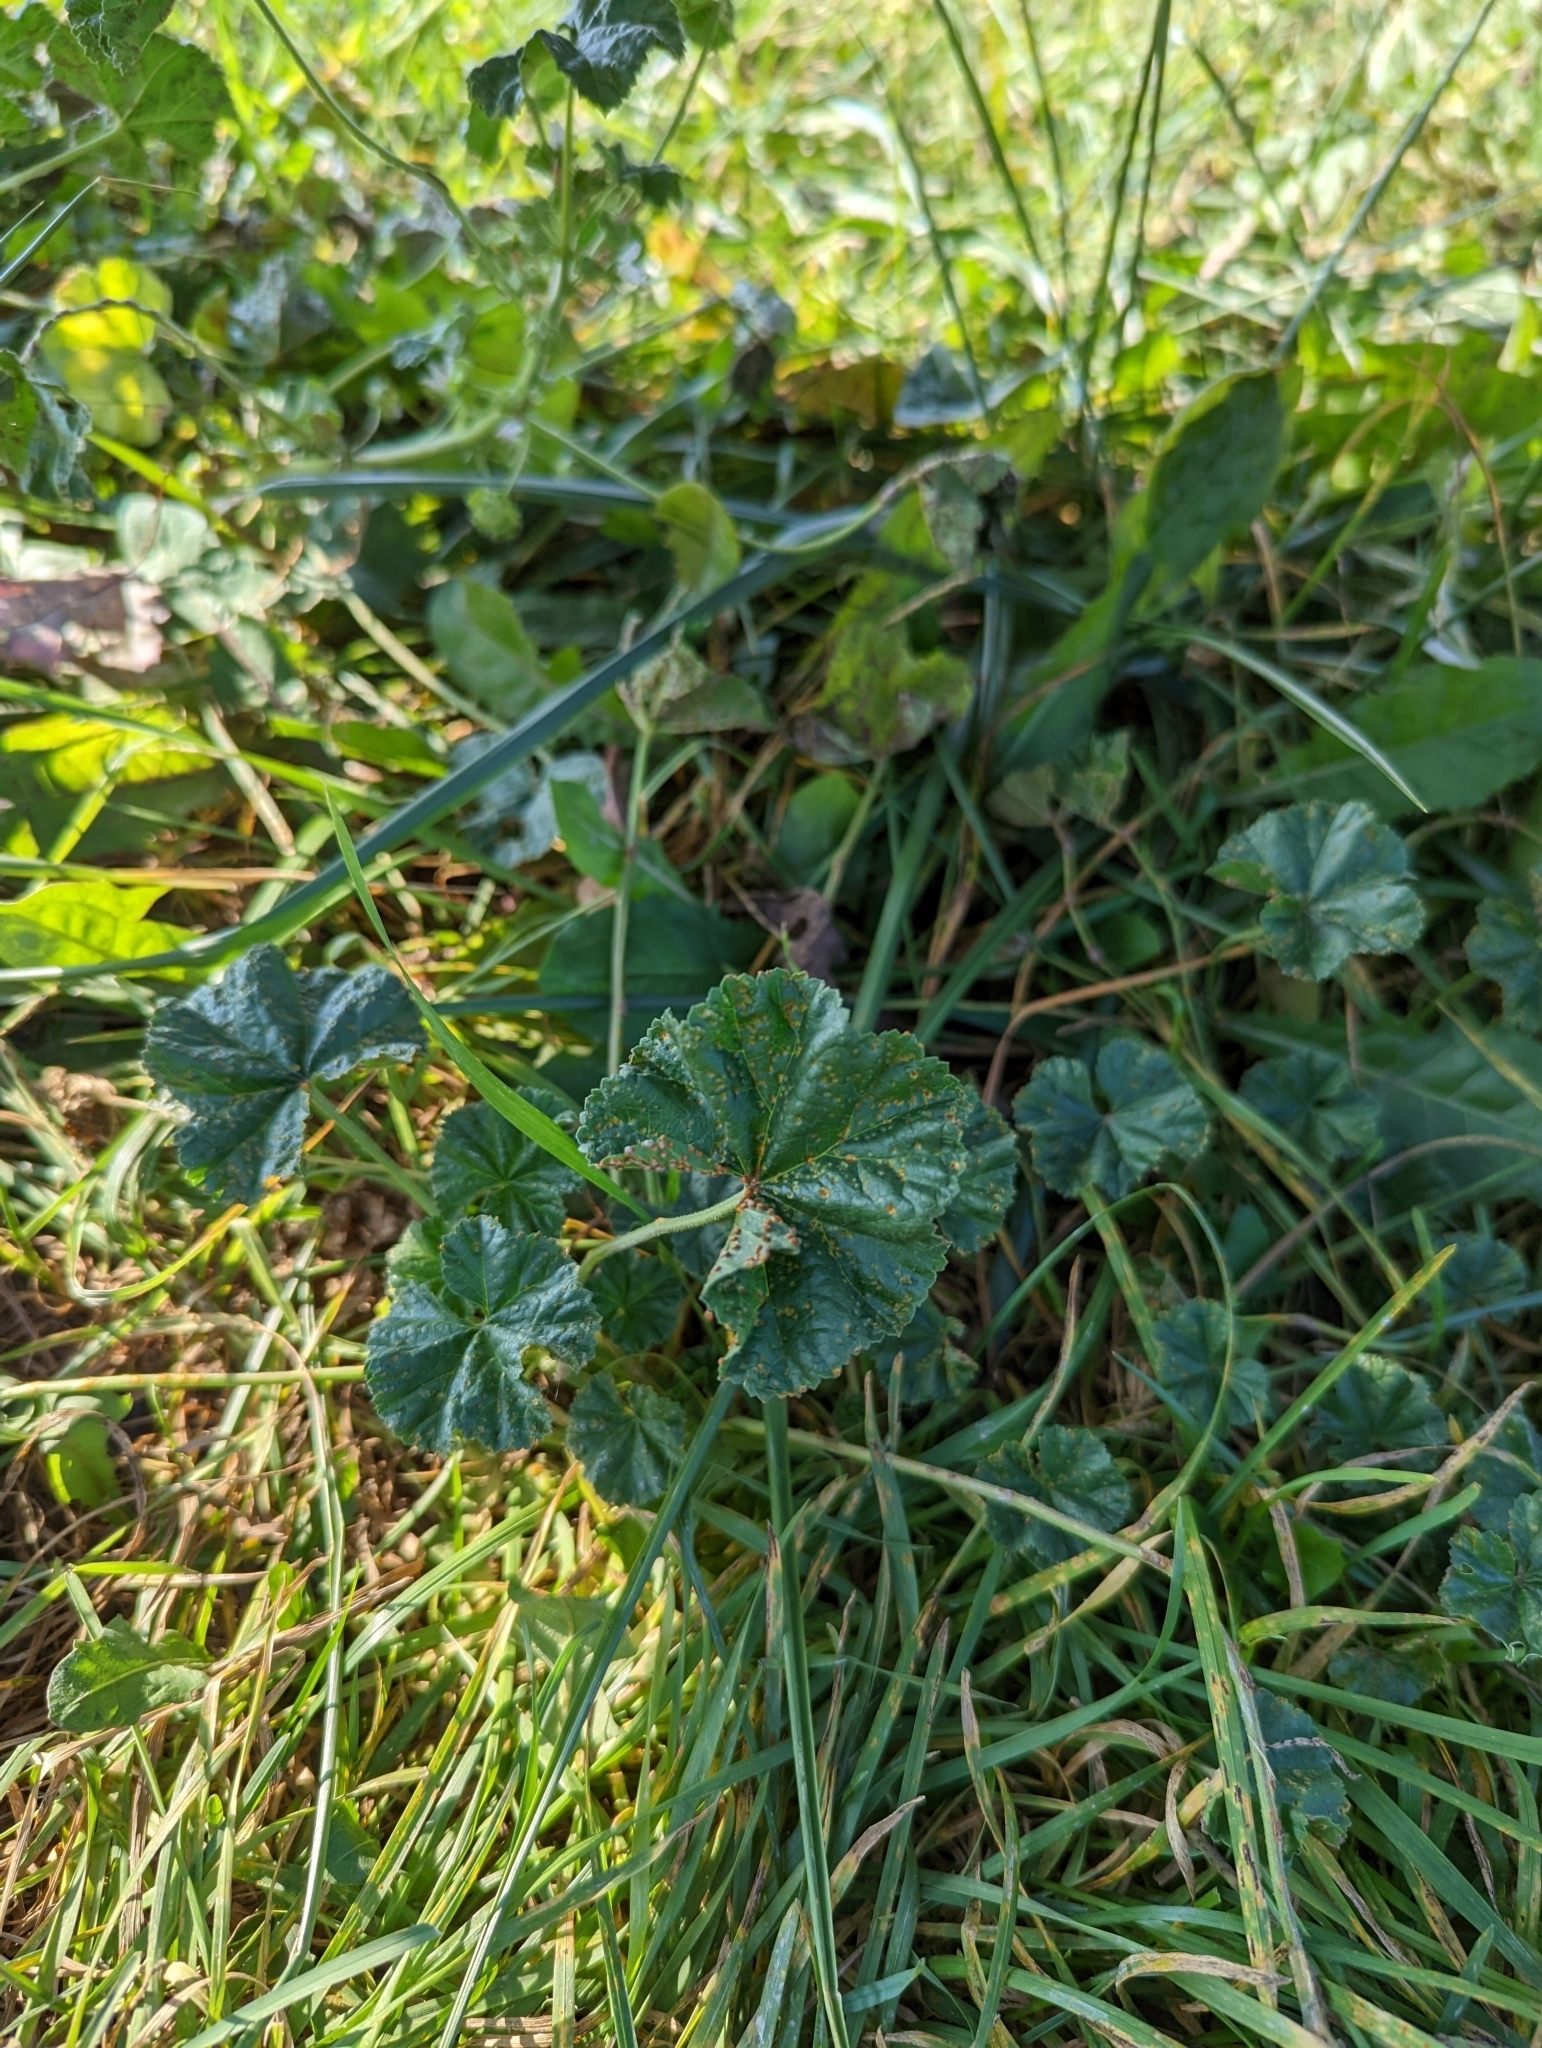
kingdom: Plantae
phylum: Tracheophyta
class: Magnoliopsida
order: Malvales
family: Malvaceae
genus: Malva
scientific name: Malva neglecta
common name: Common mallow
